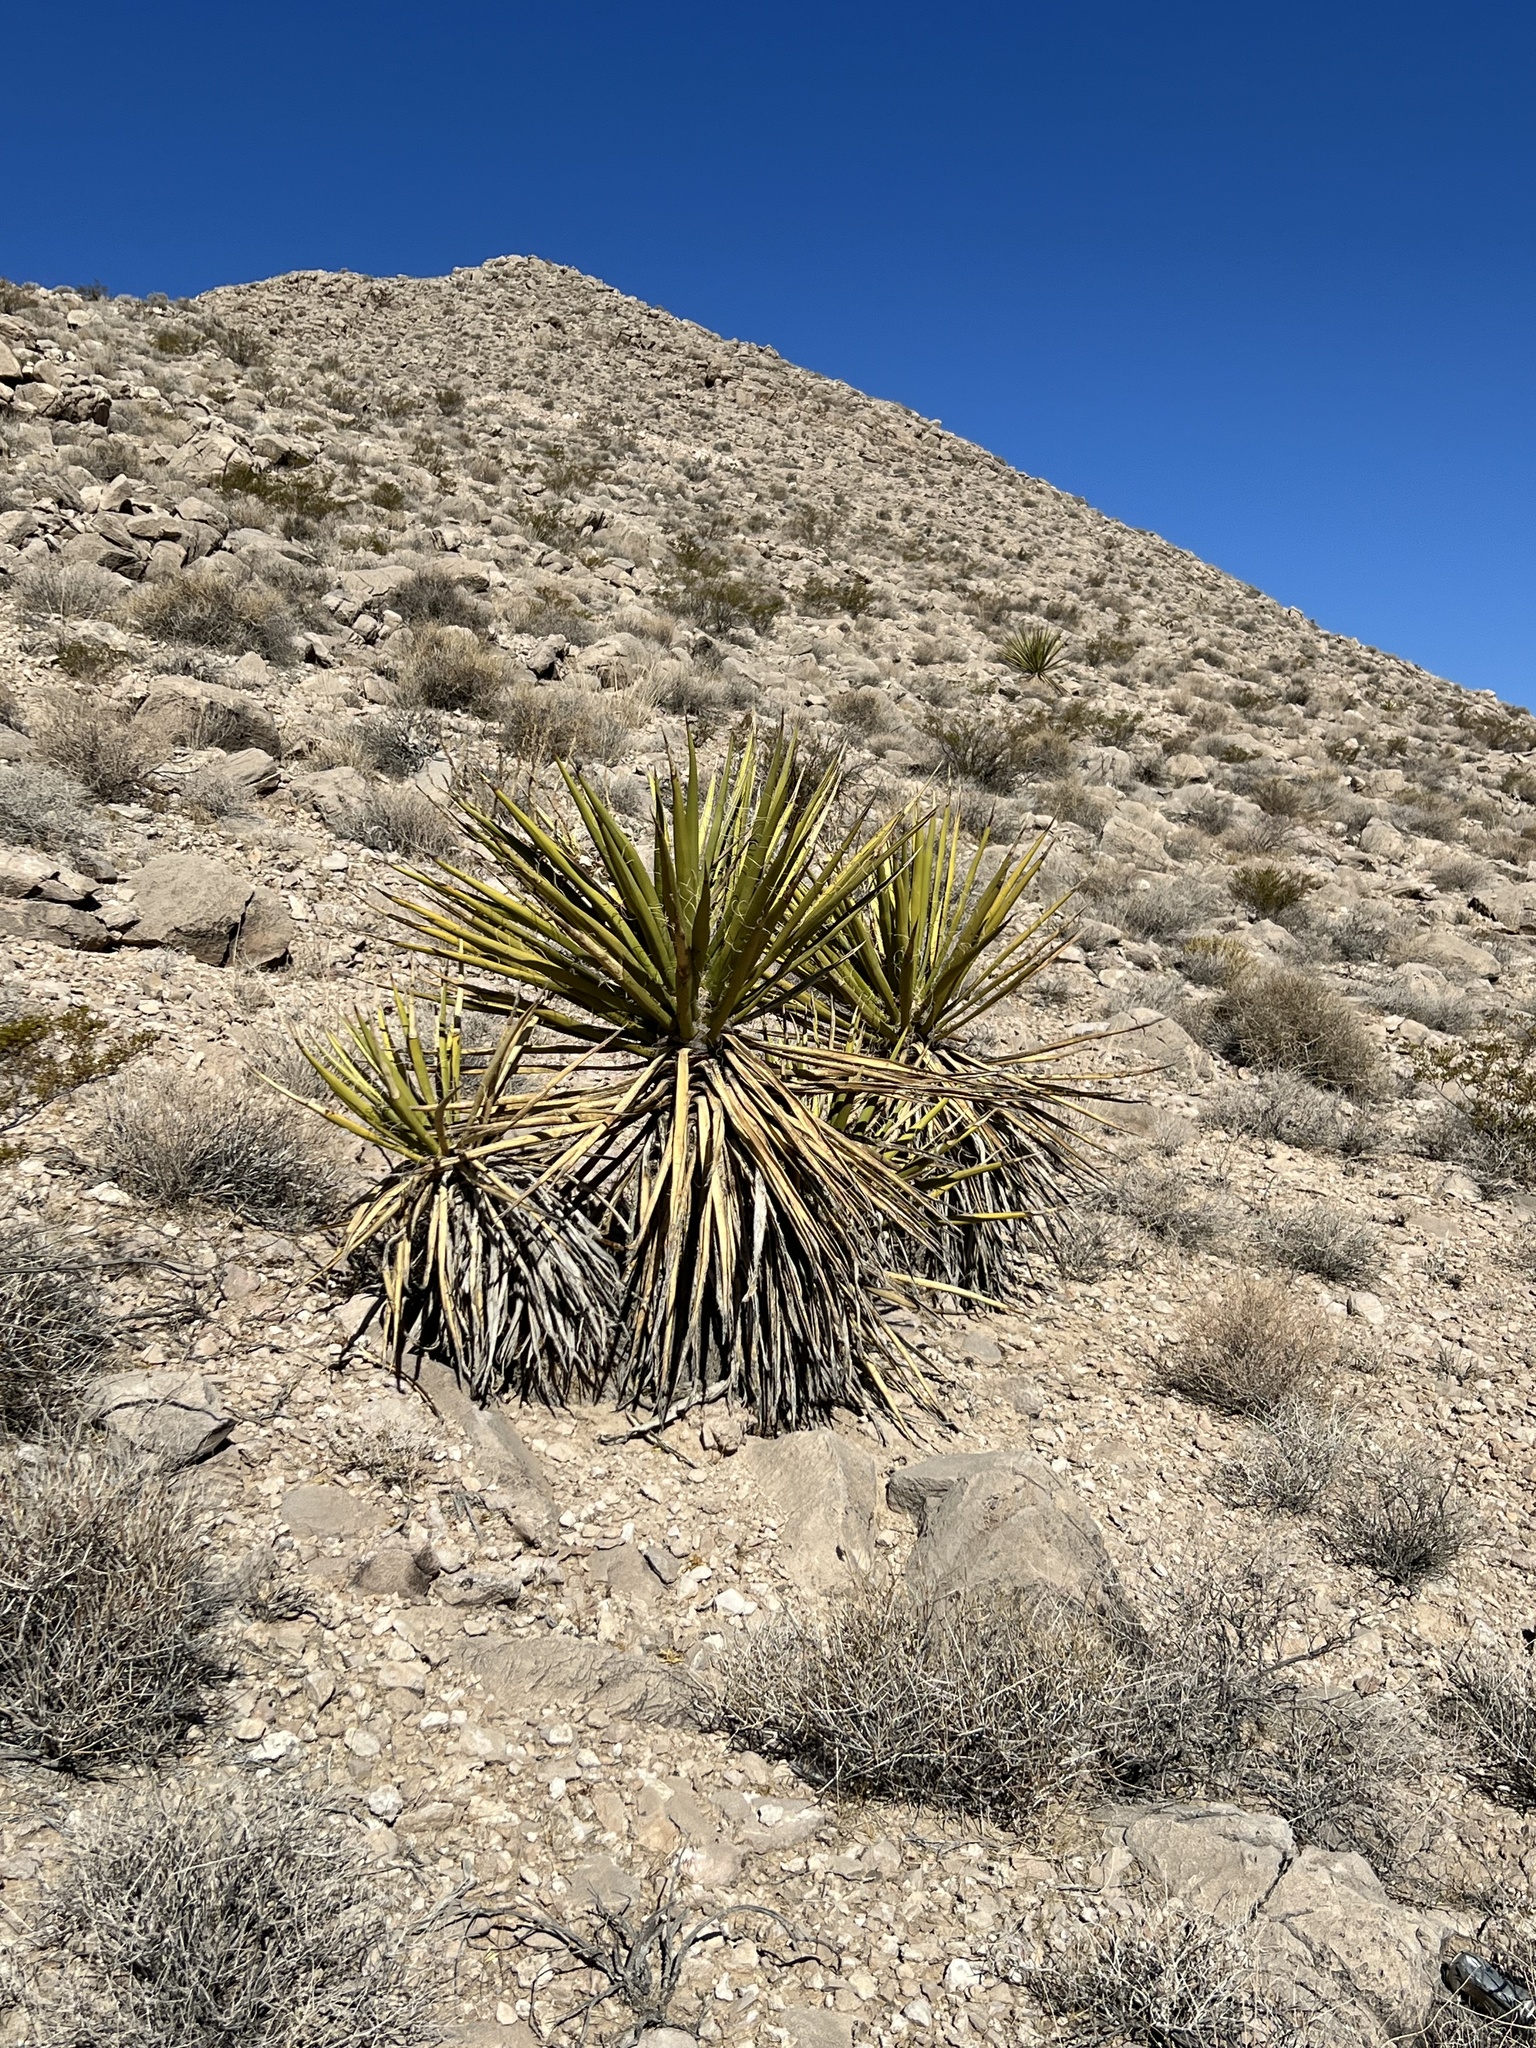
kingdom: Plantae
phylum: Tracheophyta
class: Liliopsida
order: Asparagales
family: Asparagaceae
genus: Yucca
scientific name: Yucca schidigera
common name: Mojave yucca
